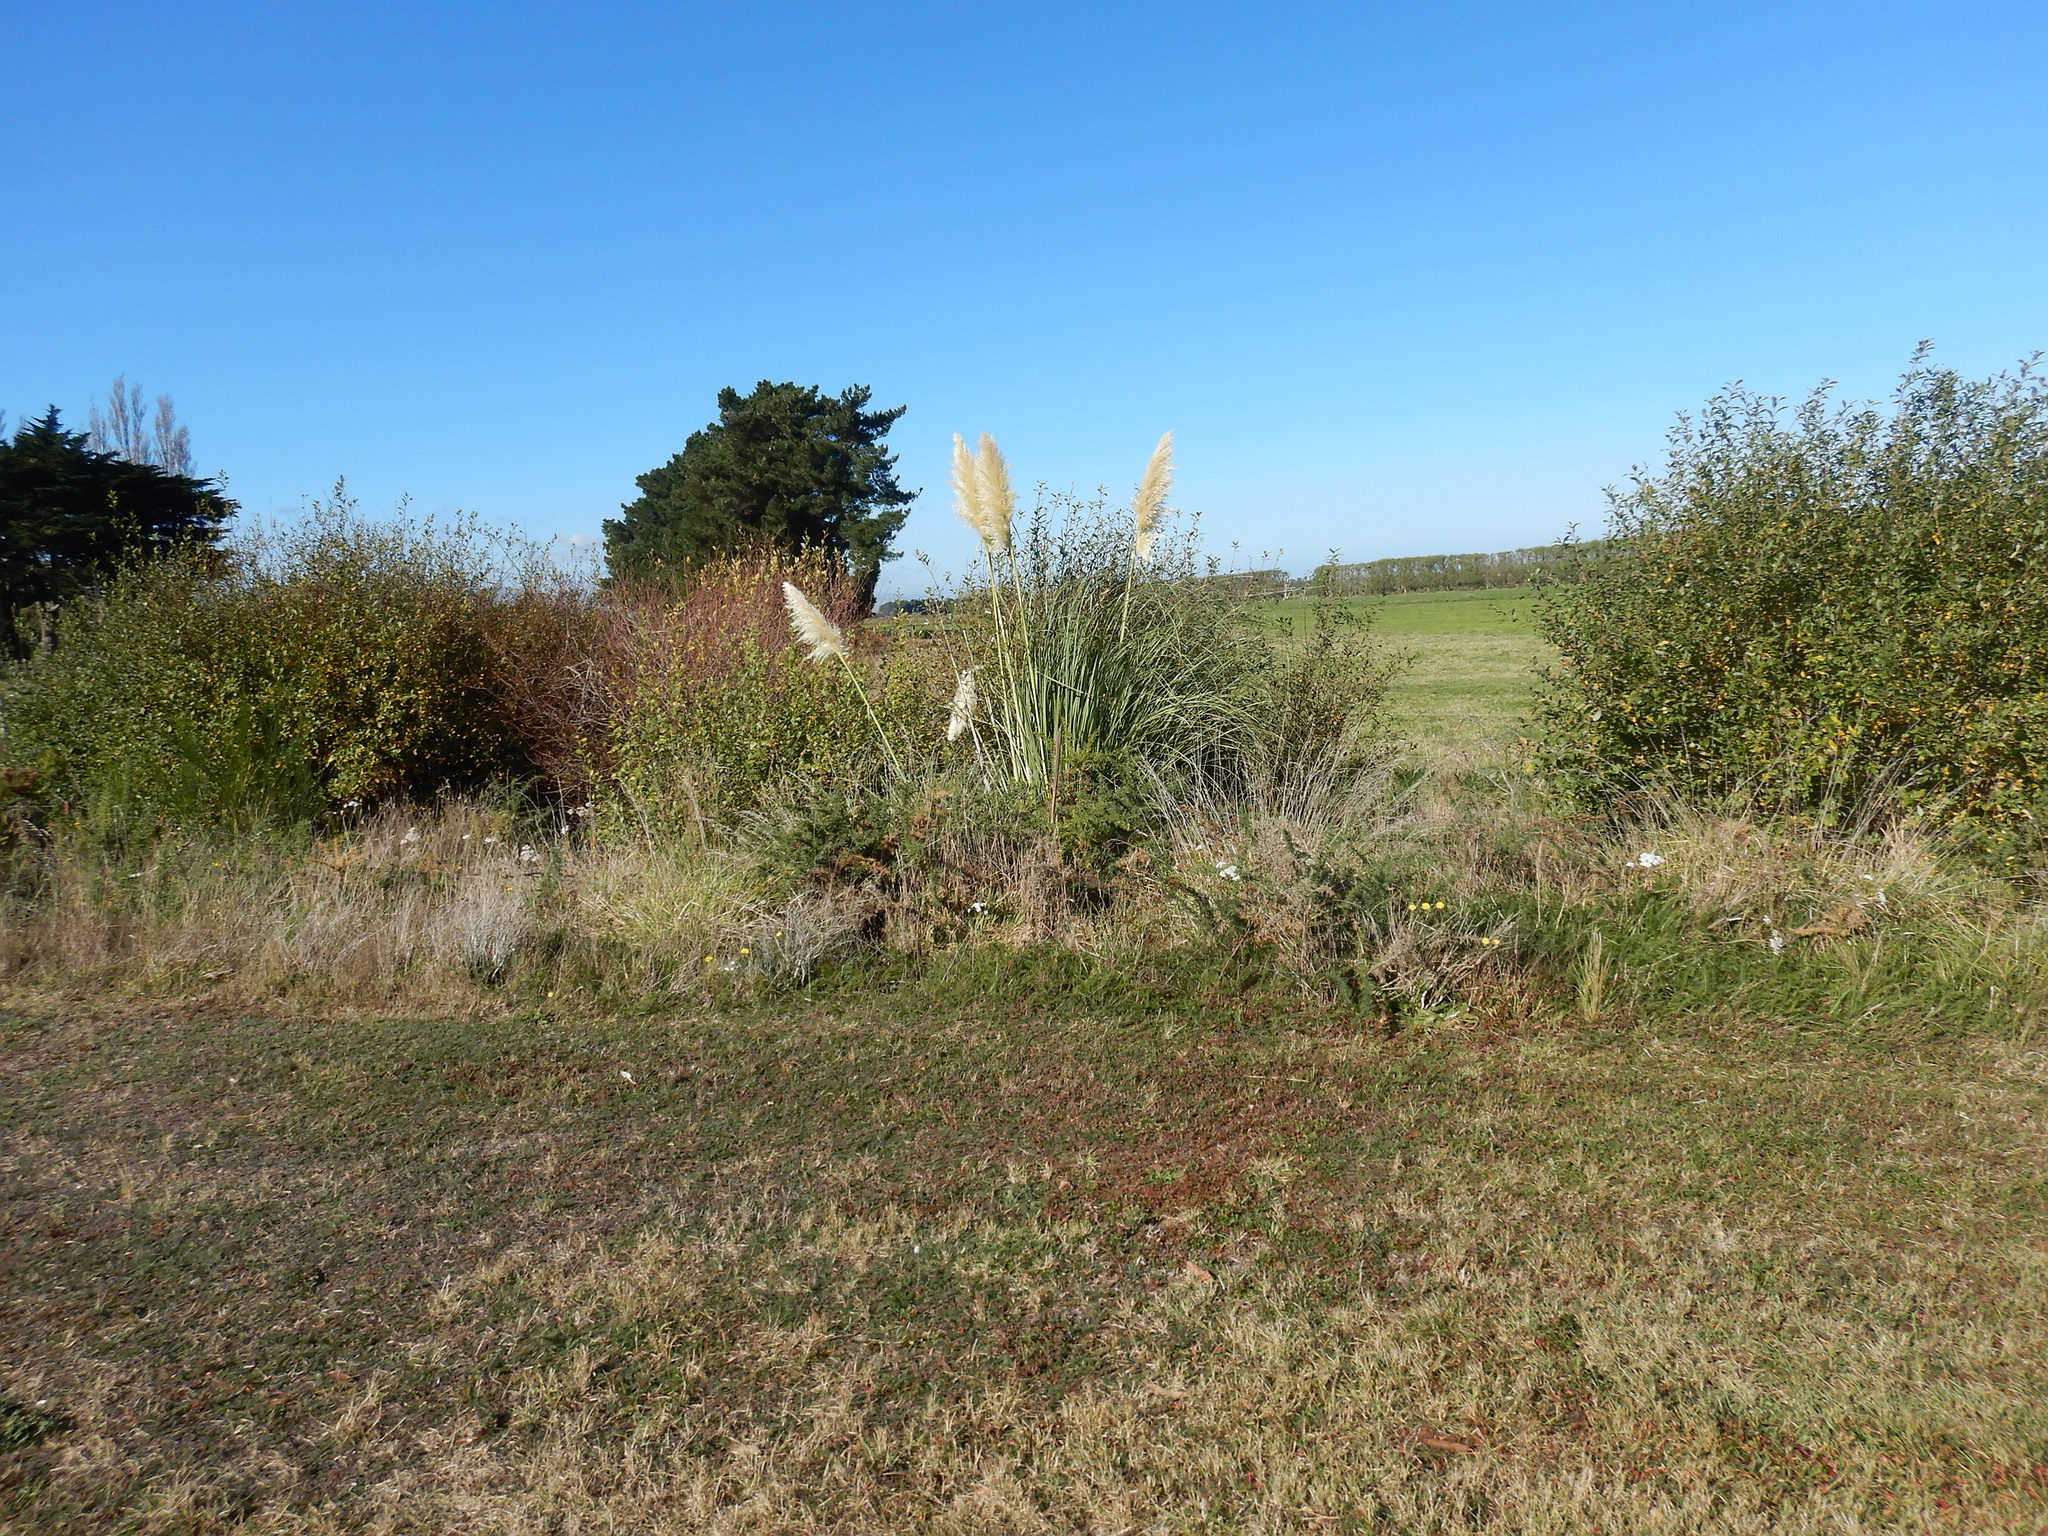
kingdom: Plantae
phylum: Tracheophyta
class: Liliopsida
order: Poales
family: Poaceae
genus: Cortaderia
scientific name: Cortaderia selloana
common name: Uruguayan pampas grass
